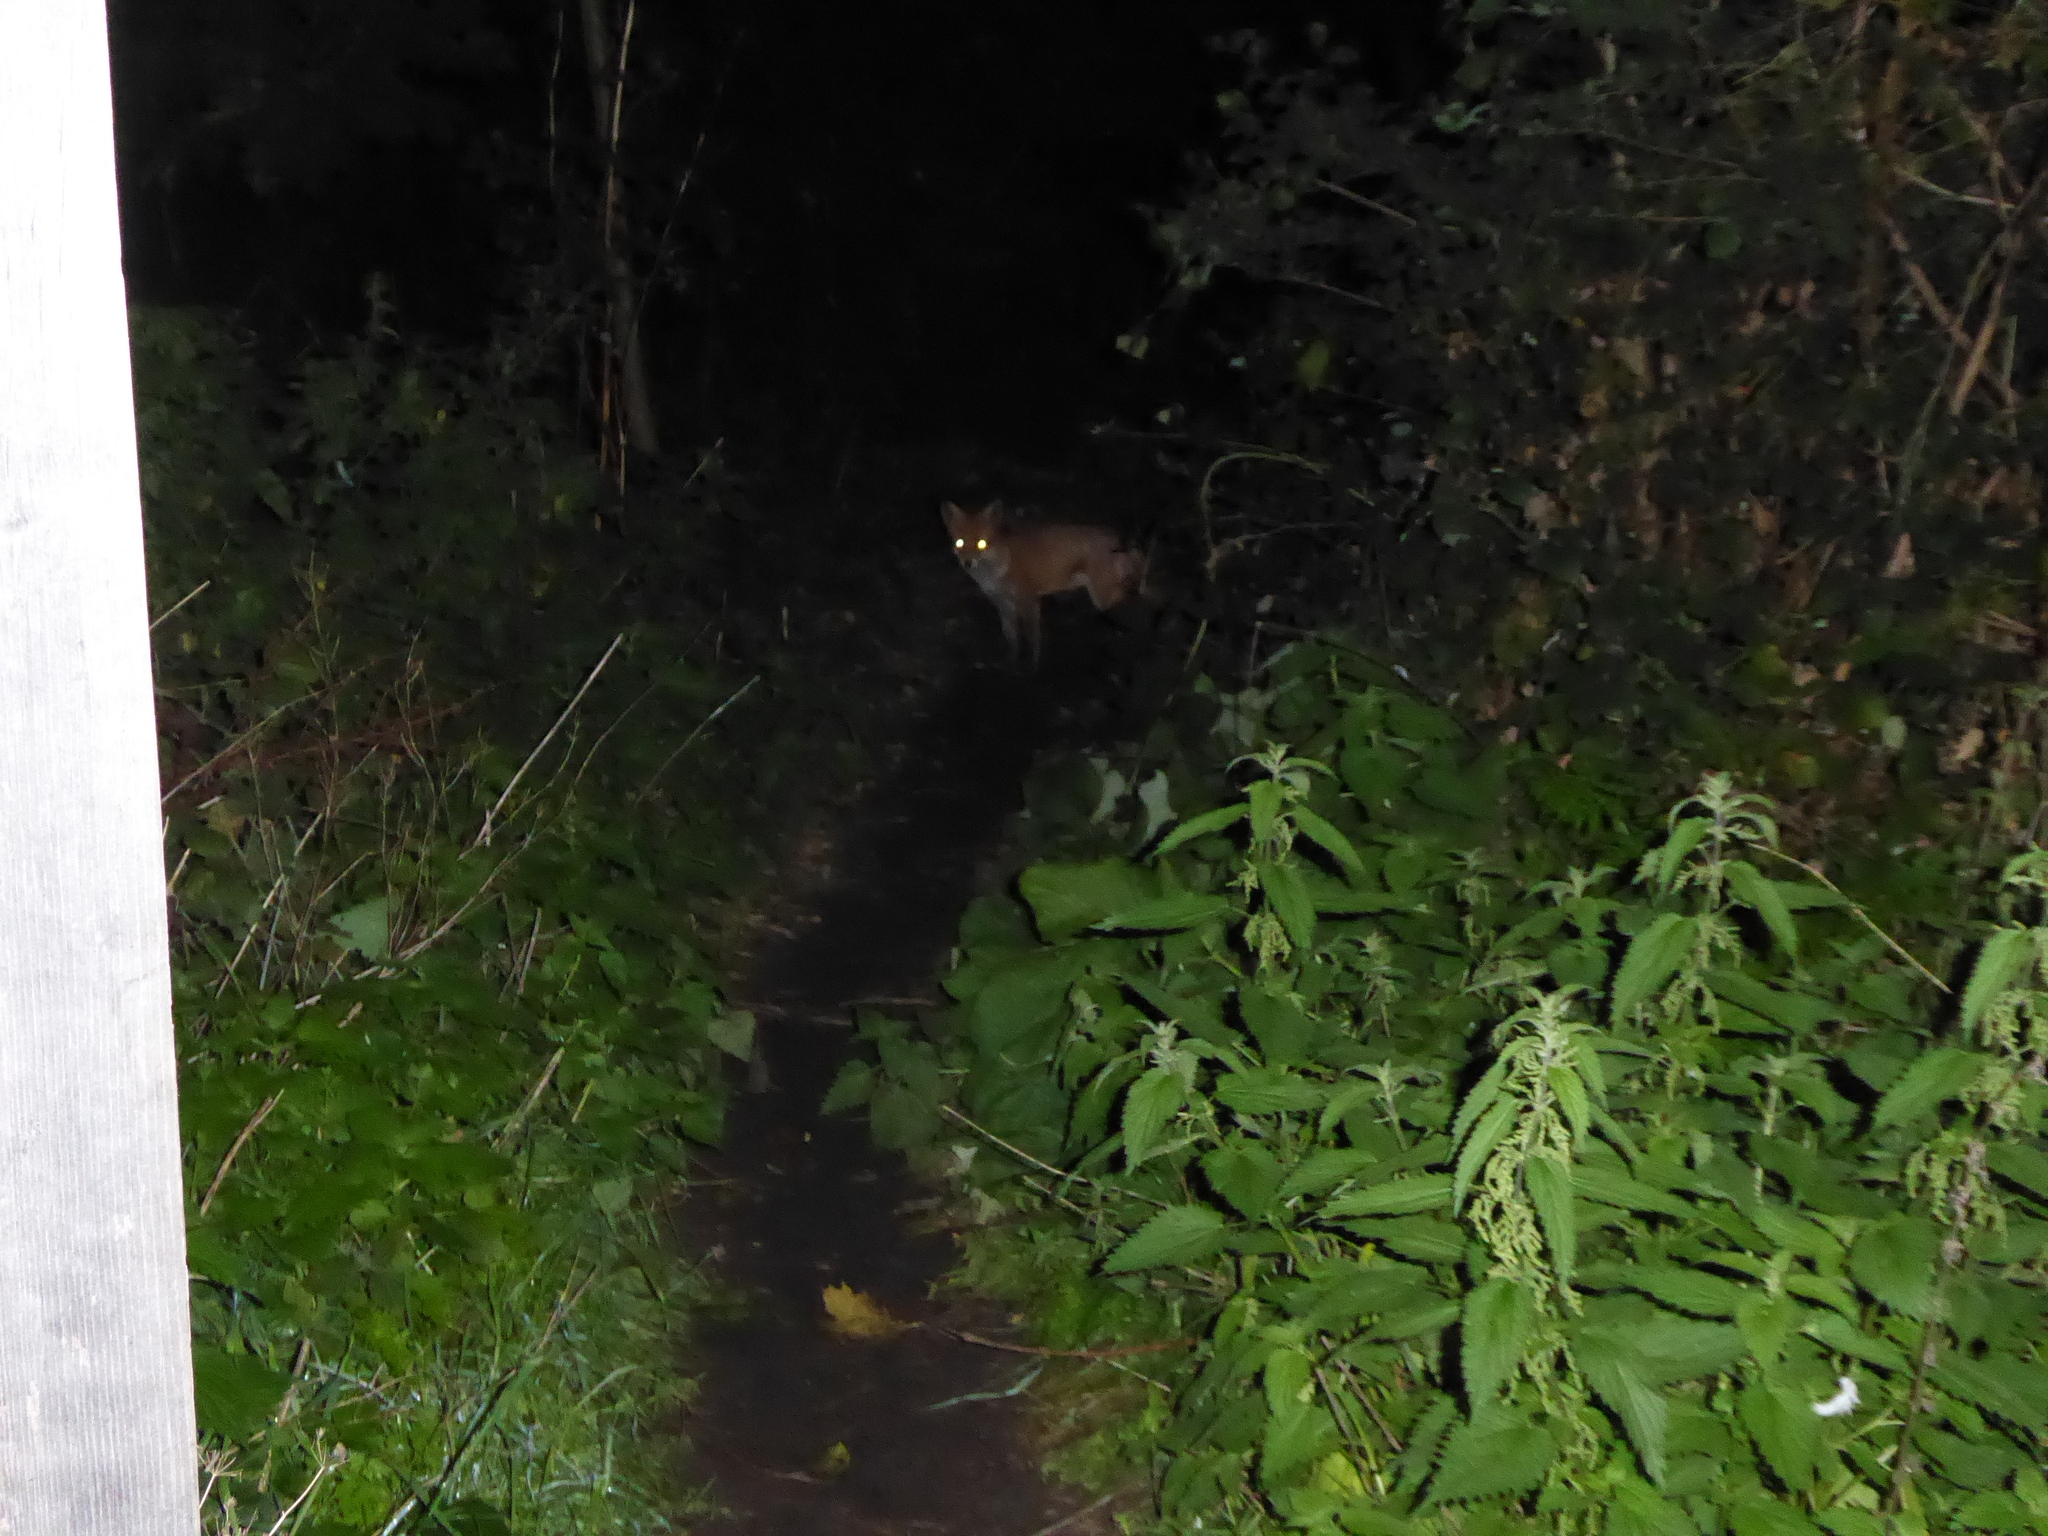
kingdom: Animalia
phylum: Chordata
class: Mammalia
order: Carnivora
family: Canidae
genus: Vulpes
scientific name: Vulpes vulpes
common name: Red fox
